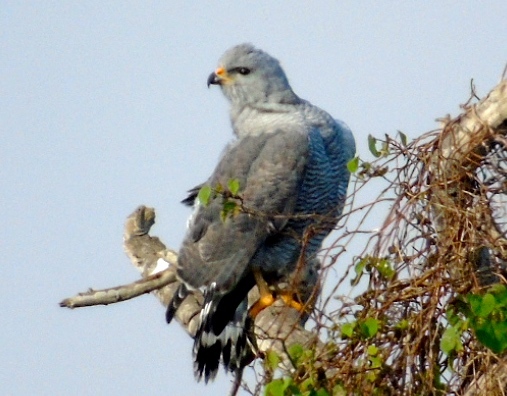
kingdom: Animalia
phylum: Chordata
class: Aves
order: Accipitriformes
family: Accipitridae
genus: Buteo
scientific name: Buteo nitidus
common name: Grey-lined hawk
